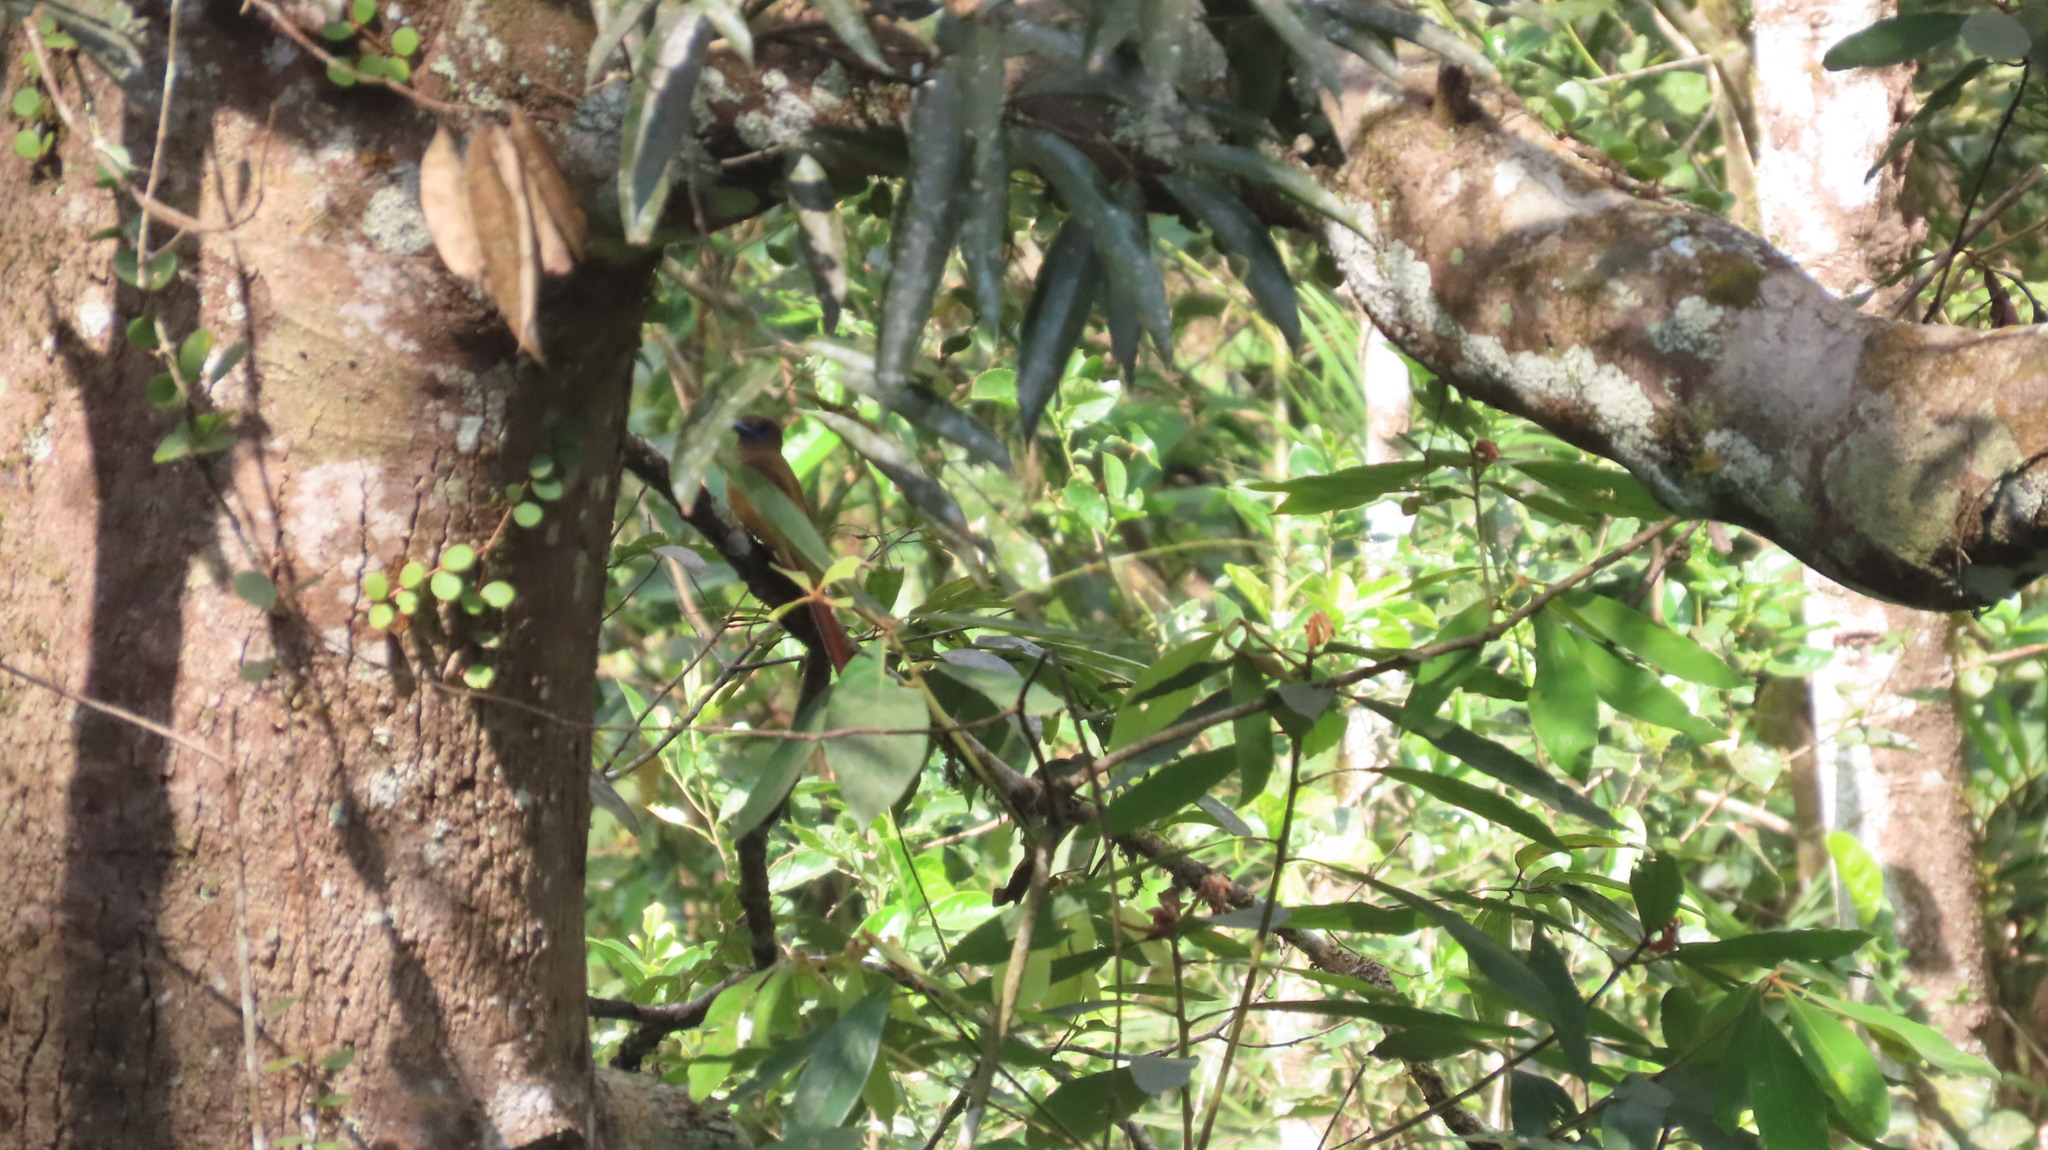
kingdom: Animalia
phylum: Chordata
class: Aves
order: Trogoniformes
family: Trogonidae
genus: Harpactes
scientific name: Harpactes fasciatus
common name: Malabar trogon
